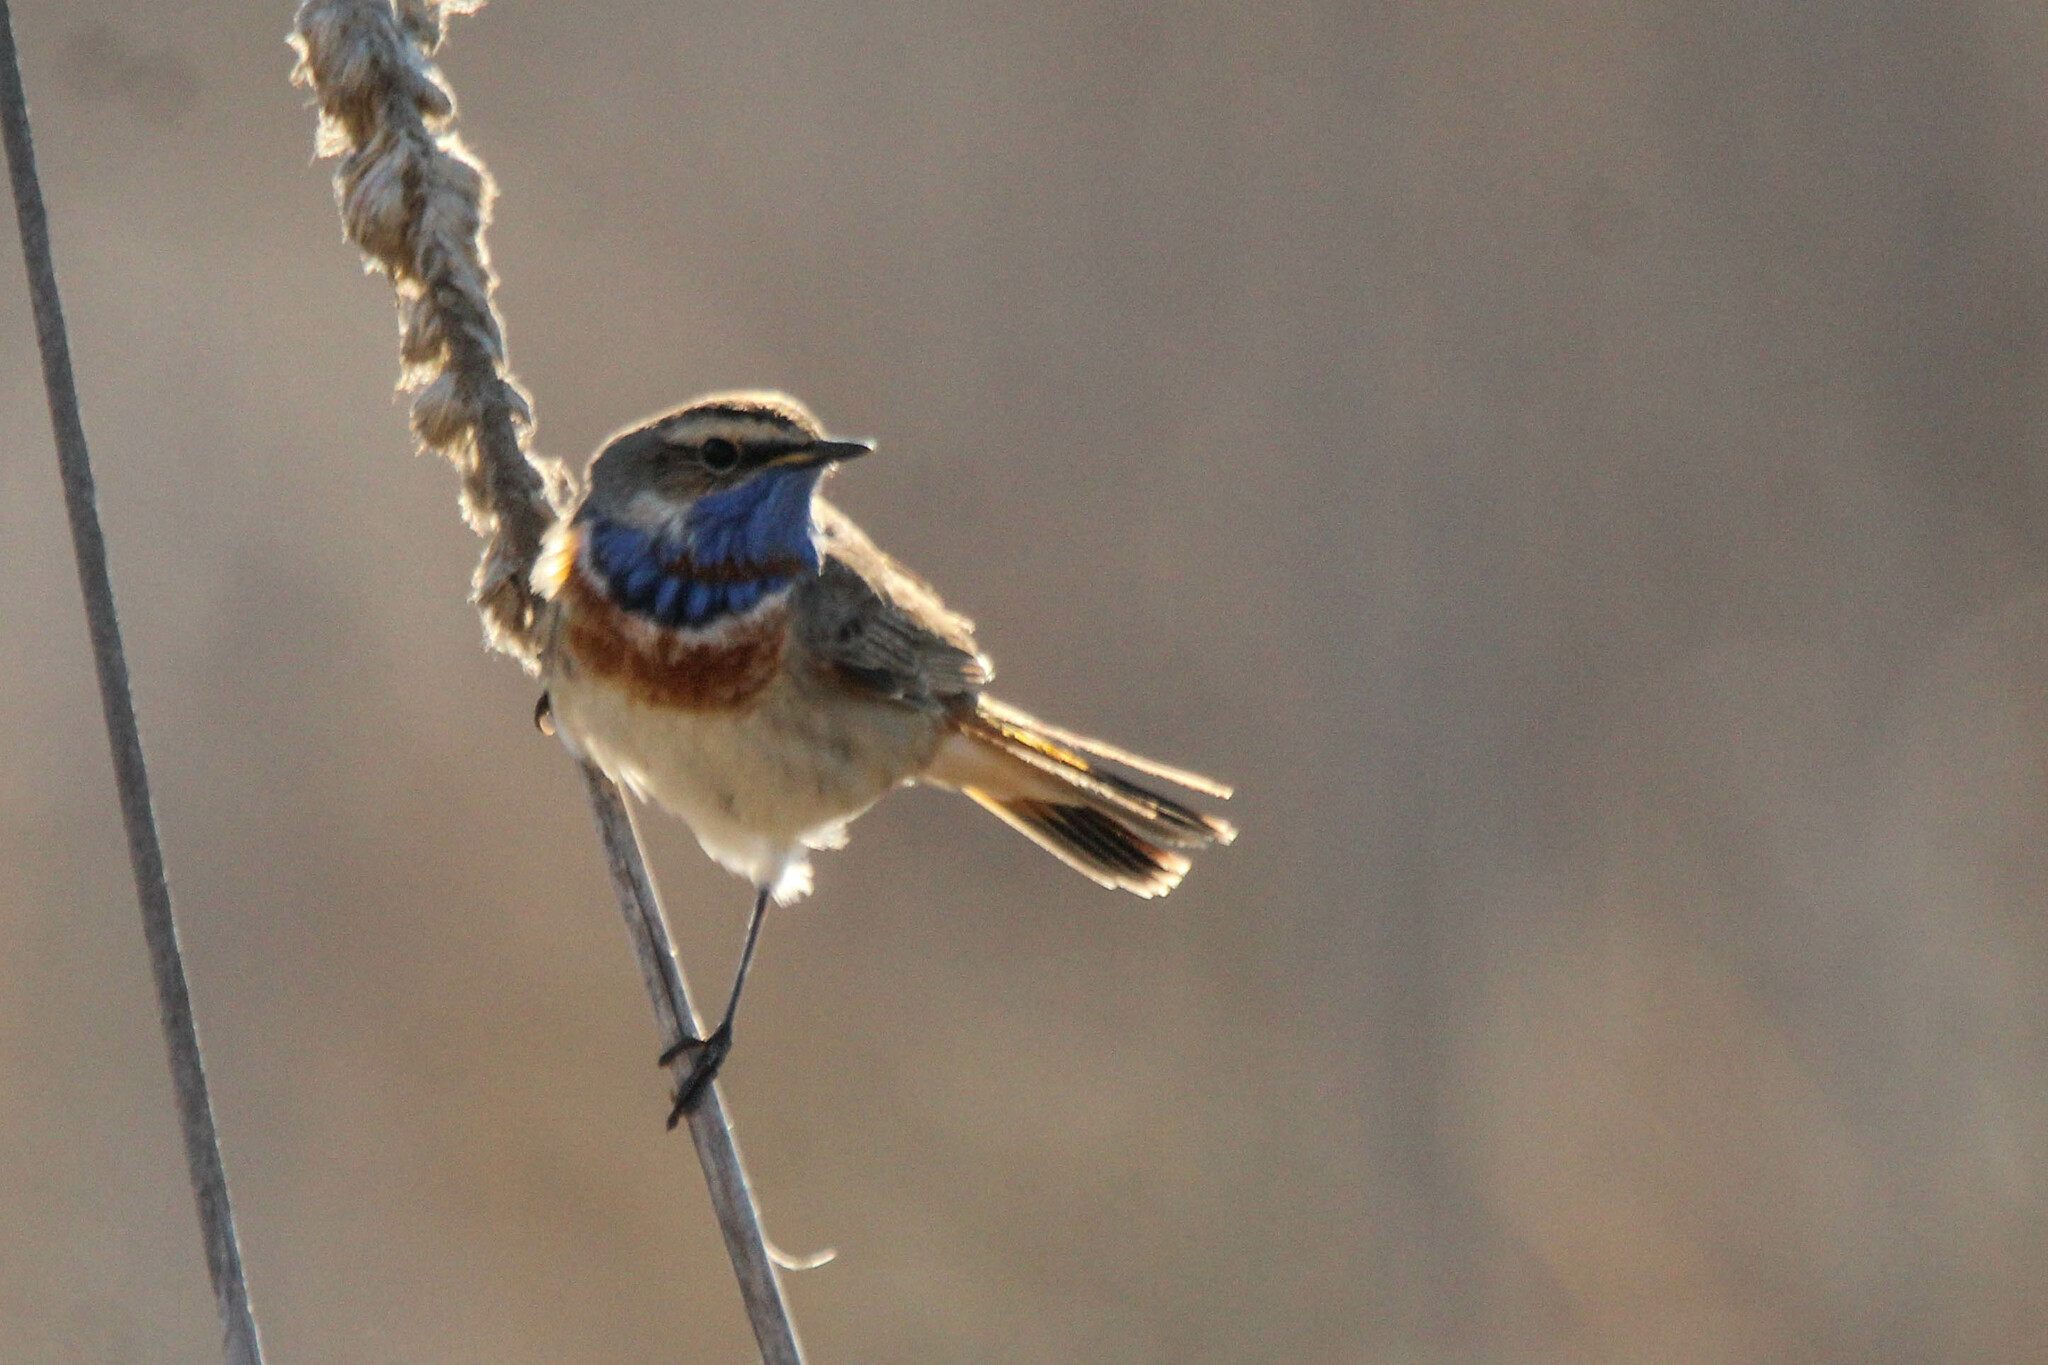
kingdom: Animalia
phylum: Chordata
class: Aves
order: Passeriformes
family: Muscicapidae
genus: Luscinia
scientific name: Luscinia svecica
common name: Bluethroat
